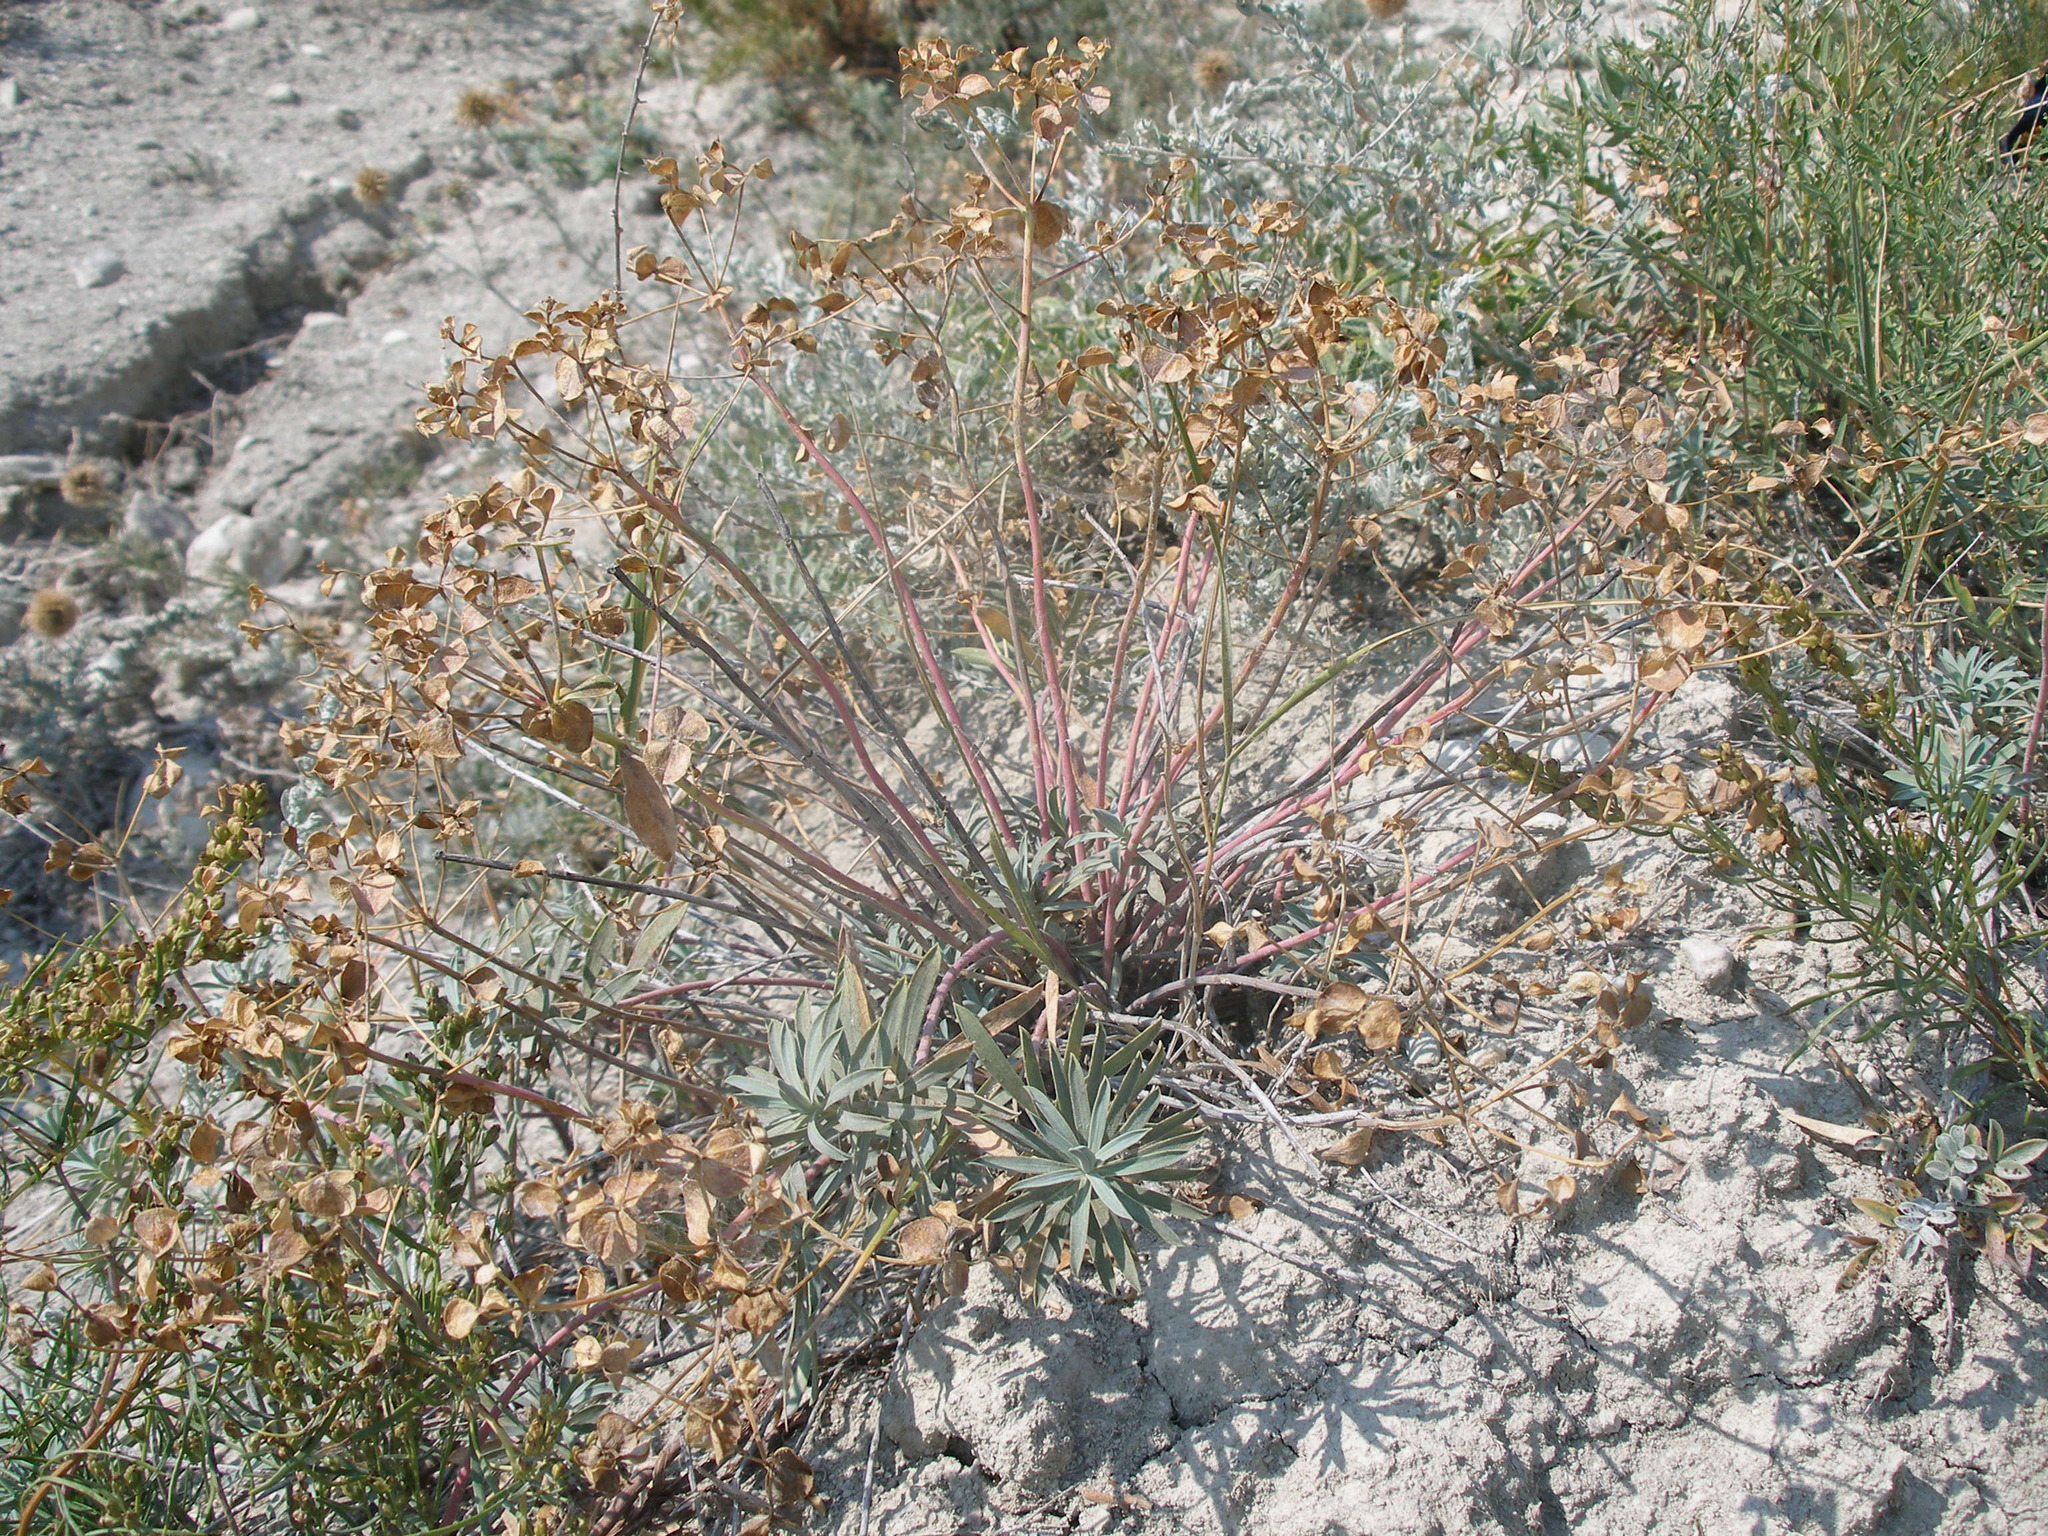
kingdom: Plantae
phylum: Tracheophyta
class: Magnoliopsida
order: Malpighiales
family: Euphorbiaceae
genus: Euphorbia
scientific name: Euphorbia glareosa
